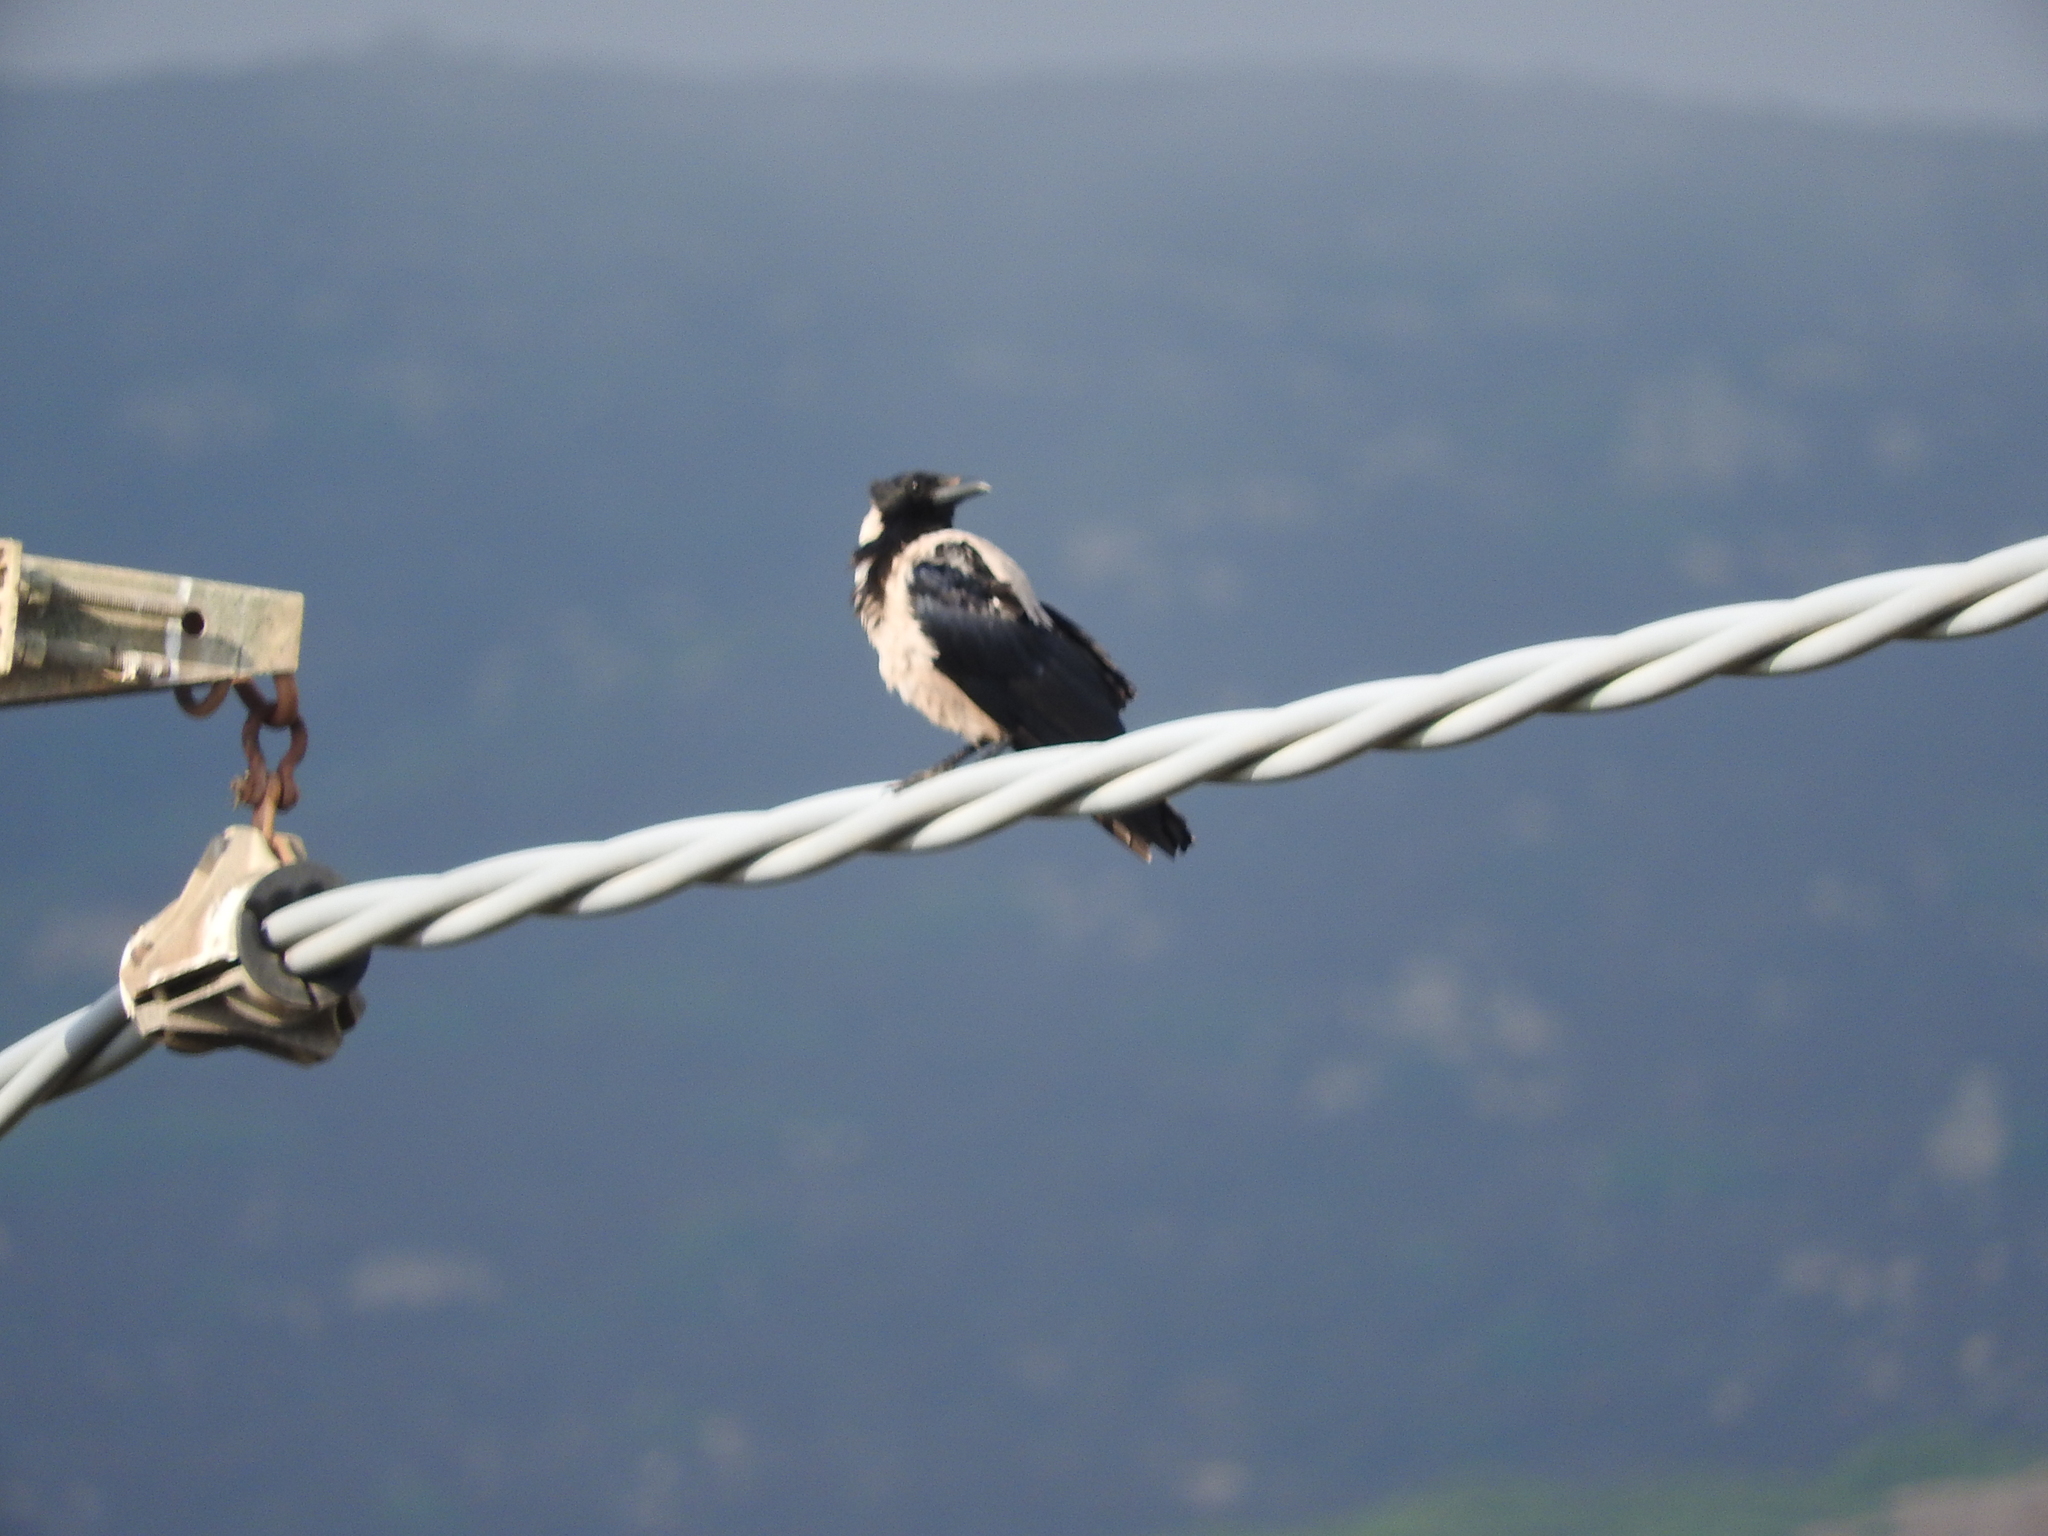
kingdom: Animalia
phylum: Chordata
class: Aves
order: Passeriformes
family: Corvidae
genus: Corvus
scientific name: Corvus cornix
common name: Hooded crow
